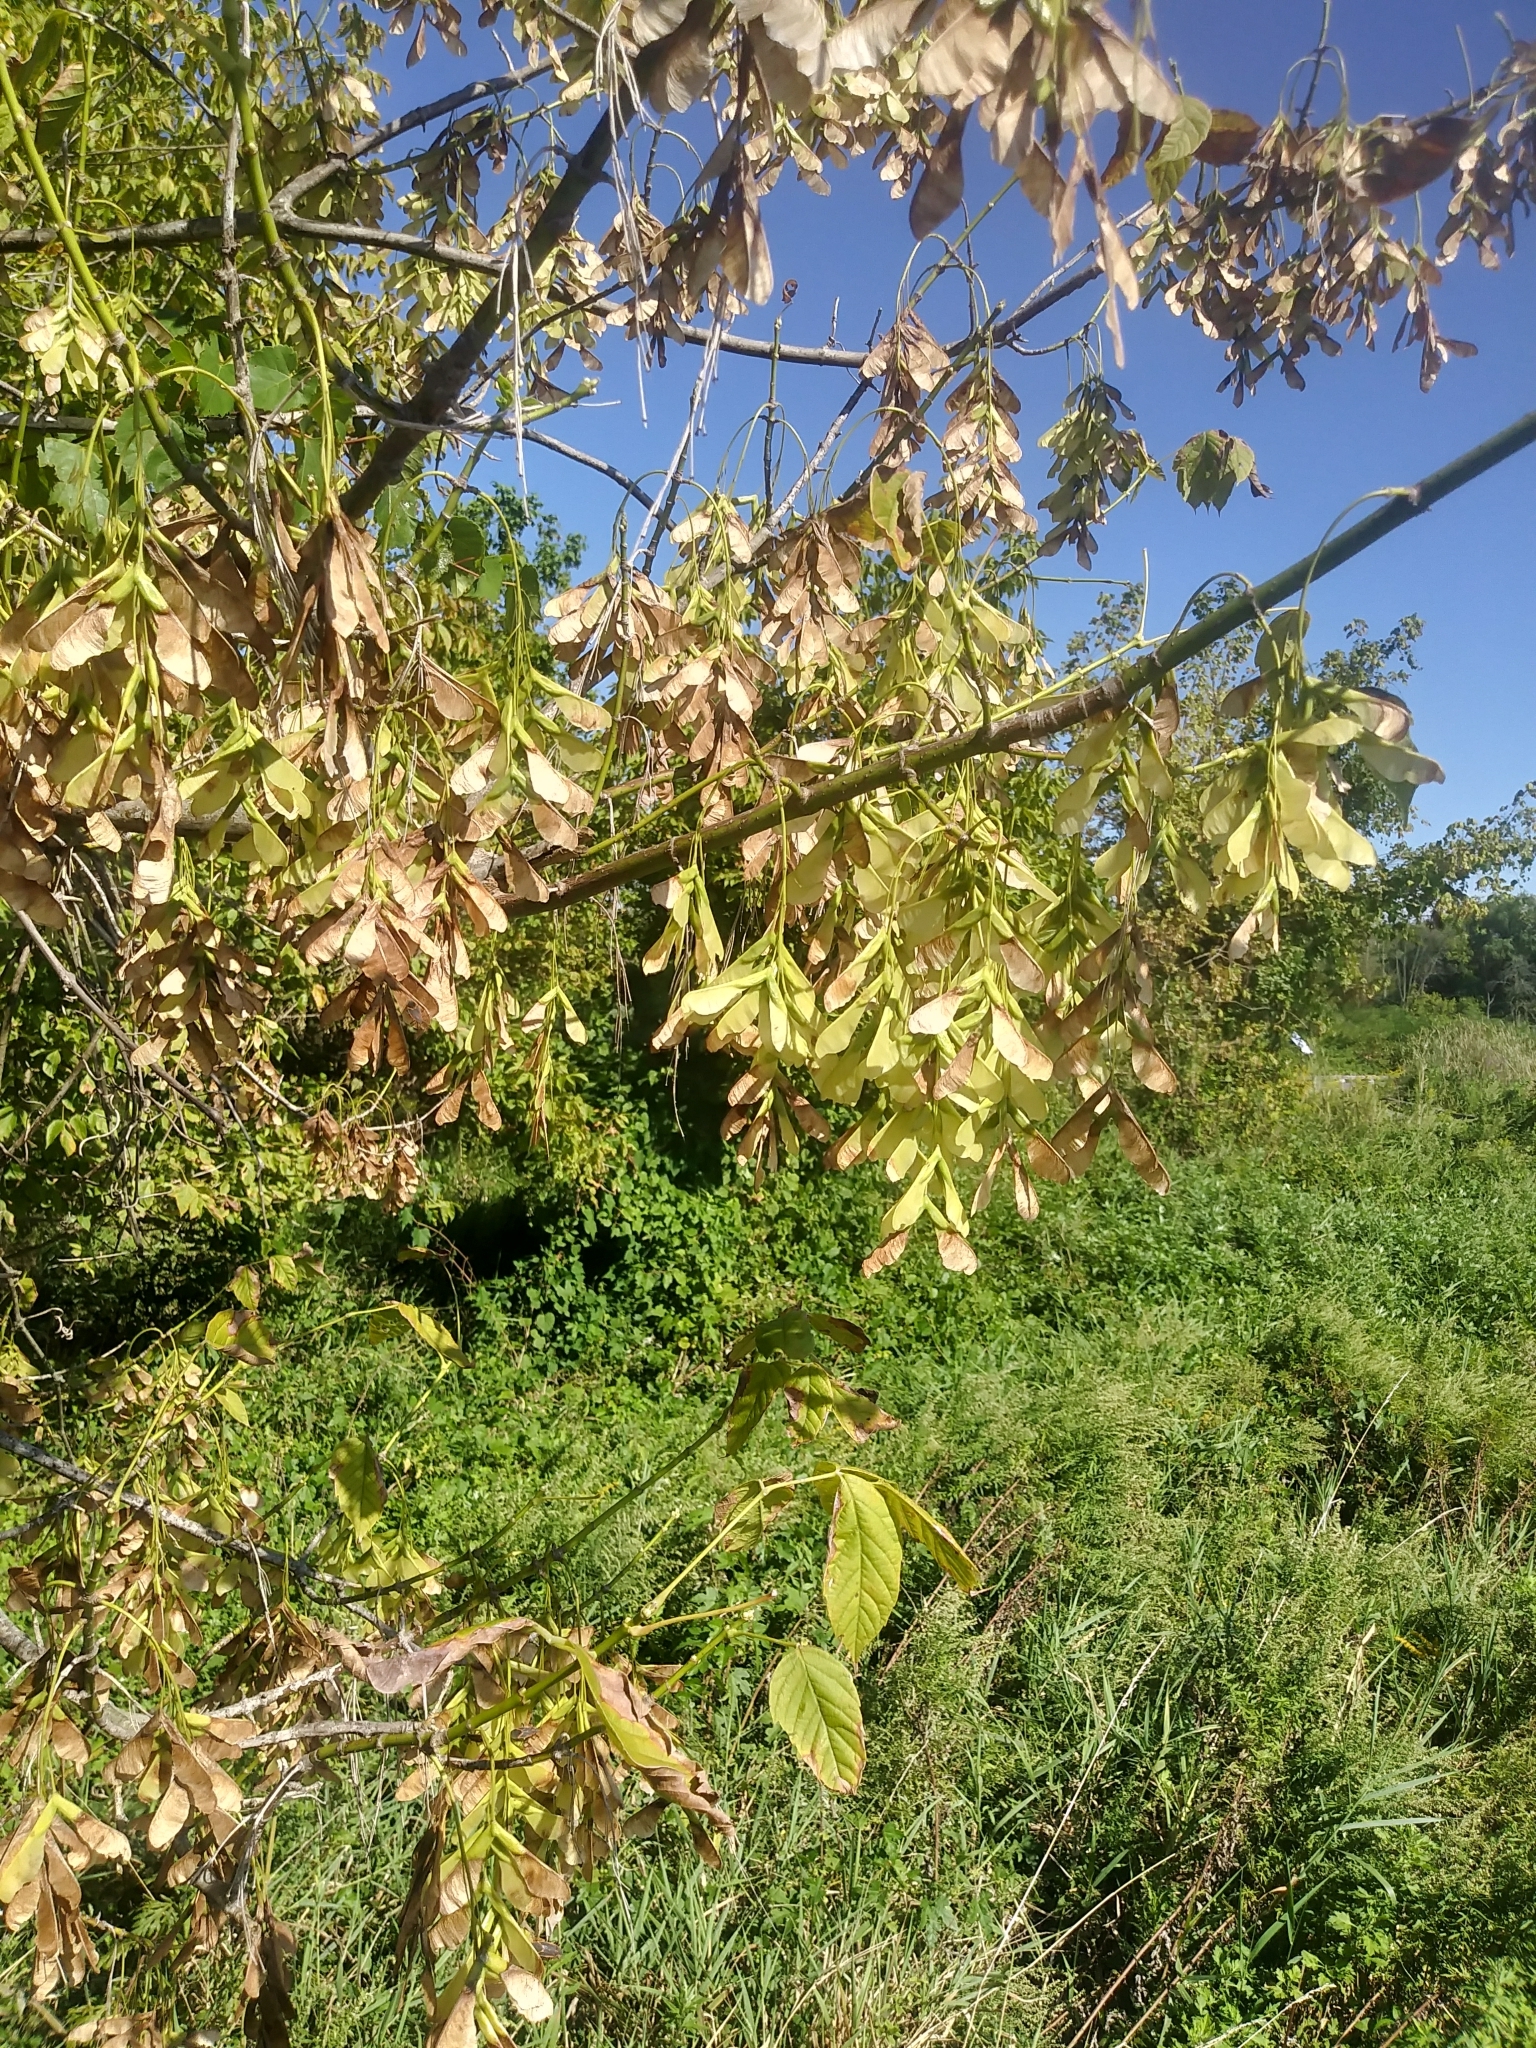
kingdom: Plantae
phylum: Tracheophyta
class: Magnoliopsida
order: Sapindales
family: Sapindaceae
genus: Acer
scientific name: Acer negundo
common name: Ashleaf maple
